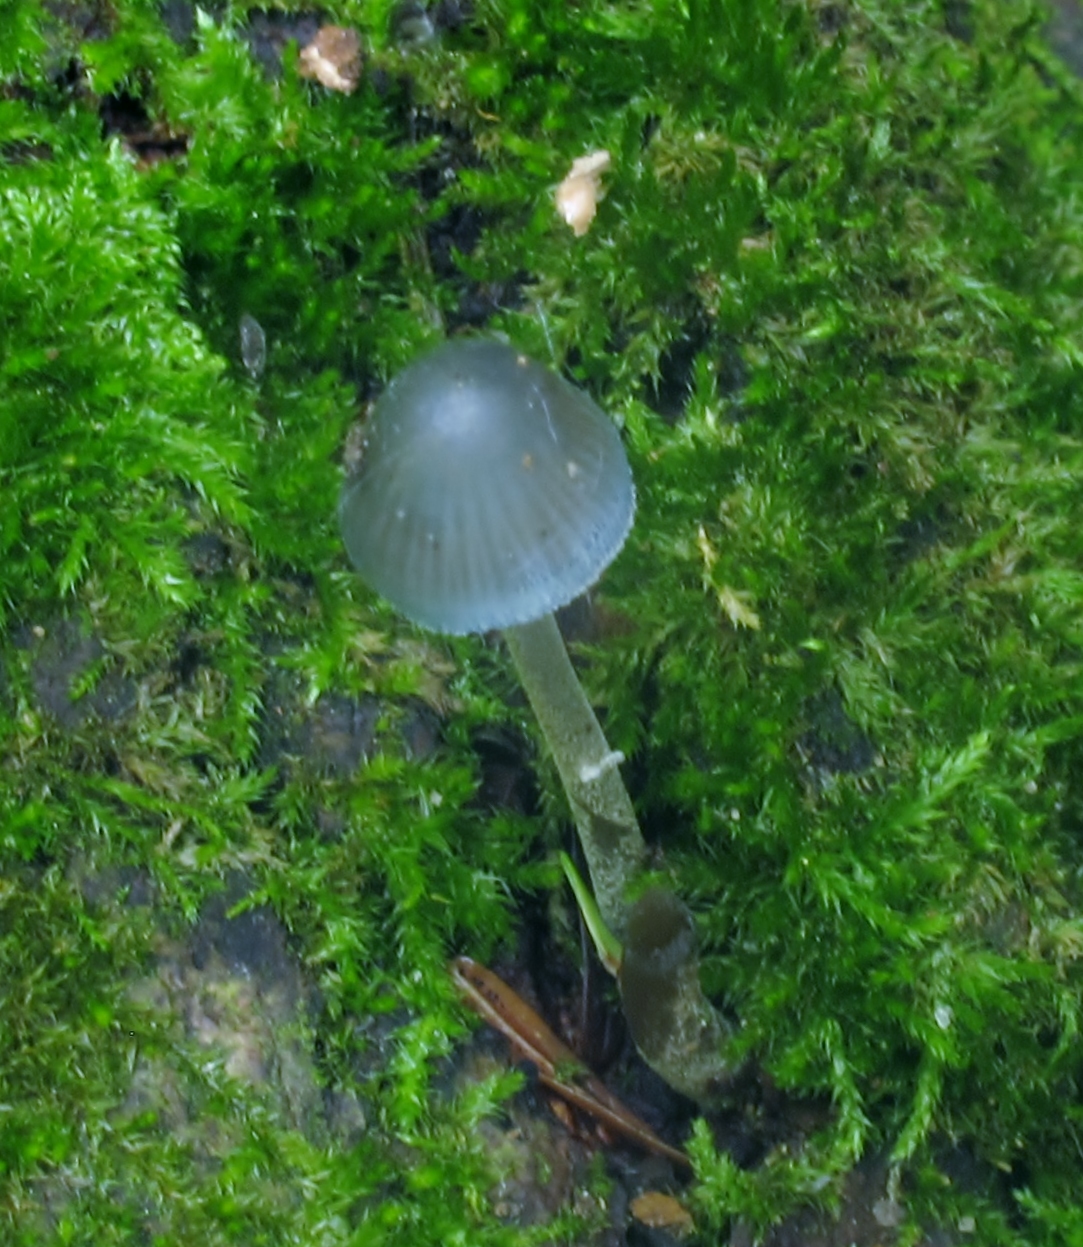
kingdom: Fungi
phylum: Basidiomycota
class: Agaricomycetes
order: Agaricales
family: Mycenaceae
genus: Mycena
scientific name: Mycena subcaerulea
